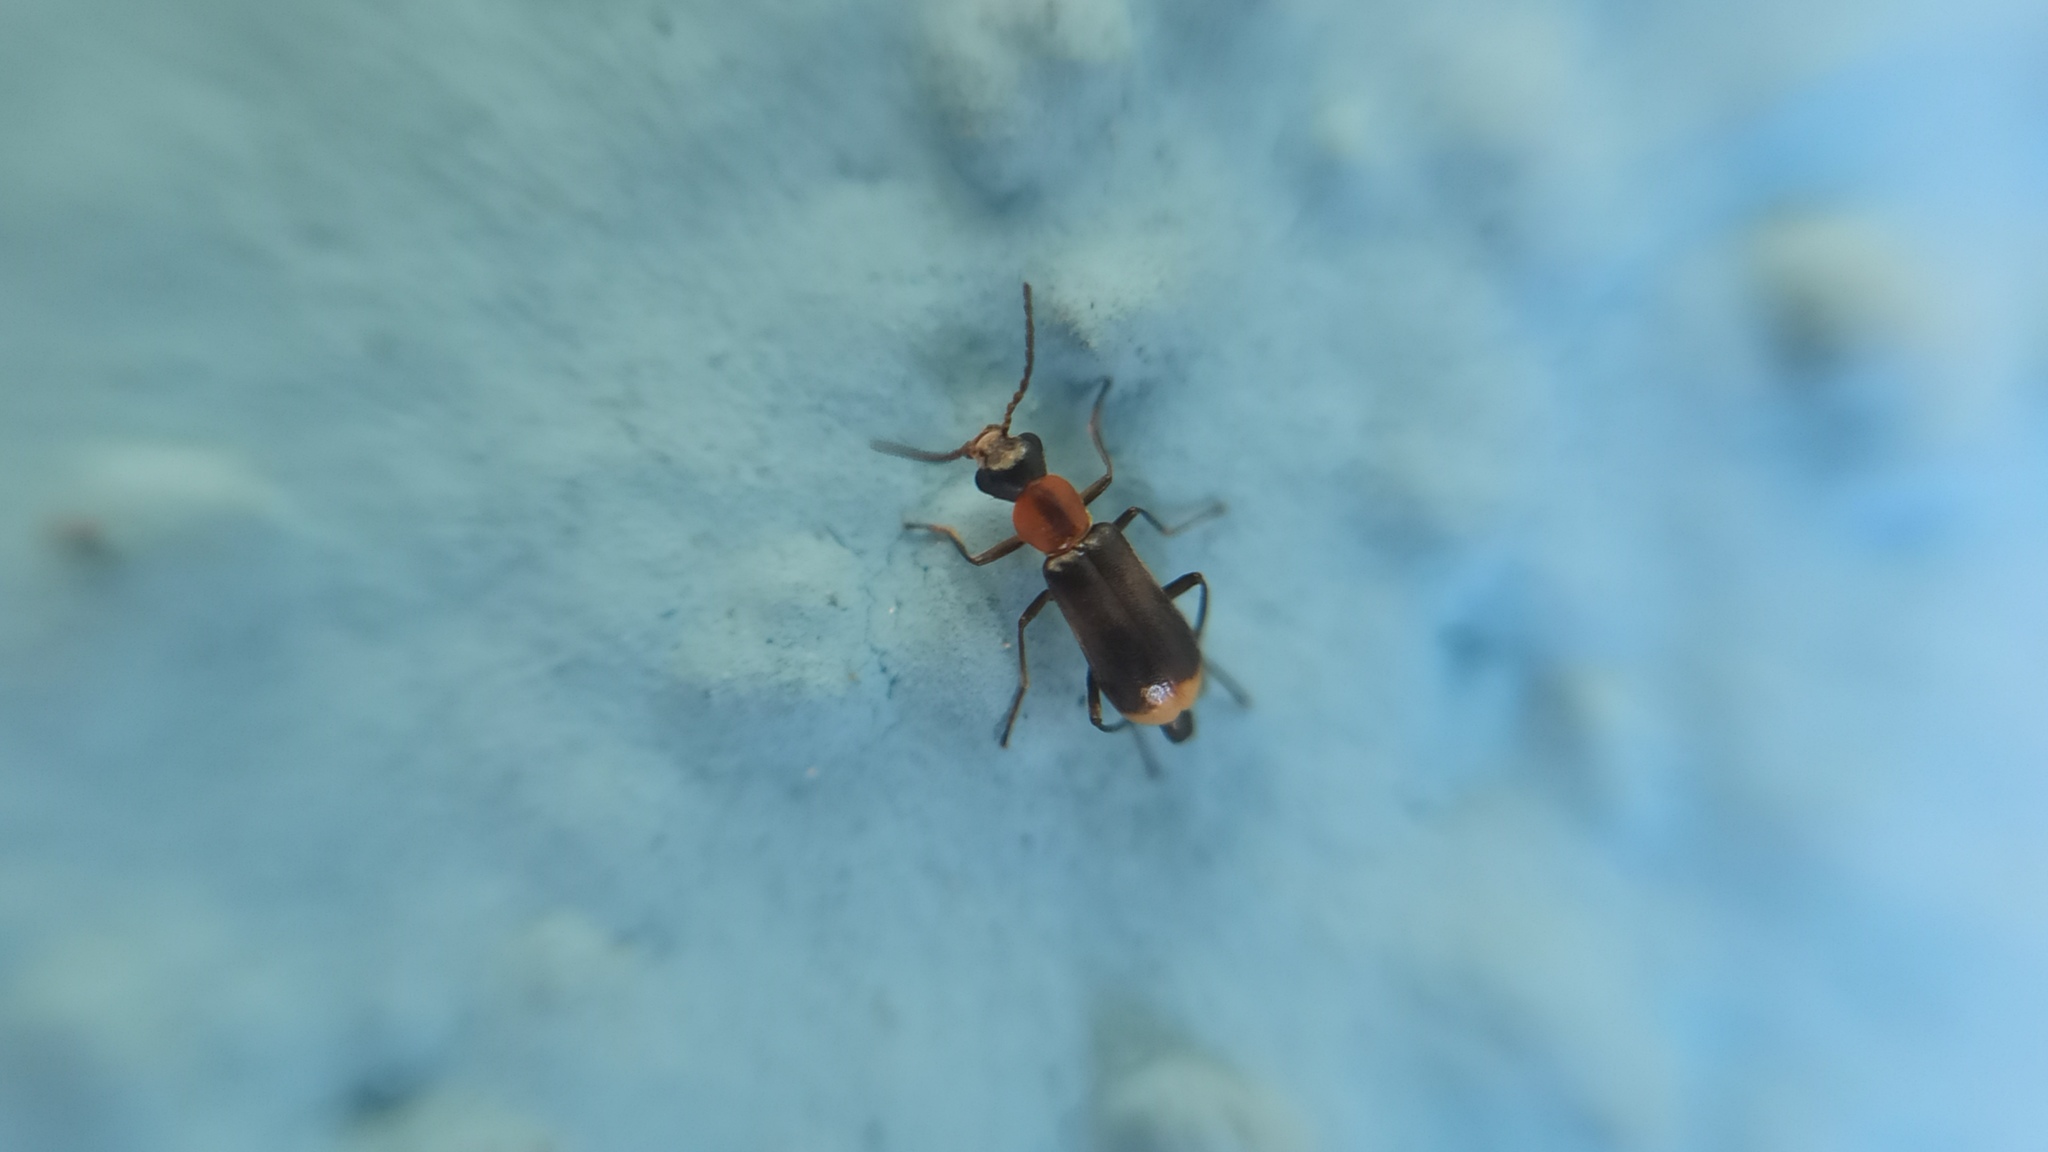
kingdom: Animalia
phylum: Arthropoda
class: Insecta
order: Coleoptera
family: Malachiidae
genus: Attalus
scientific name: Attalus minimus
